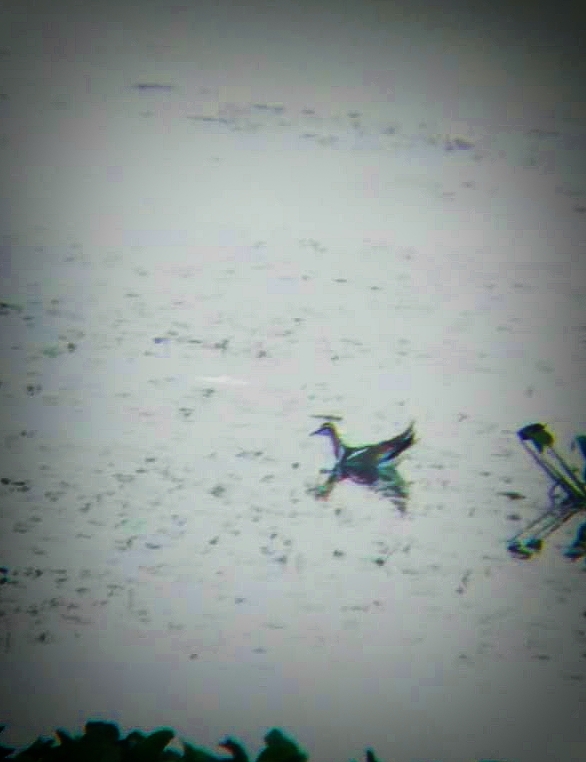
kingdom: Animalia
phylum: Chordata
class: Aves
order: Charadriiformes
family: Jacanidae
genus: Hydrophasianus
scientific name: Hydrophasianus chirurgus
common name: Pheasant-tailed jacana
